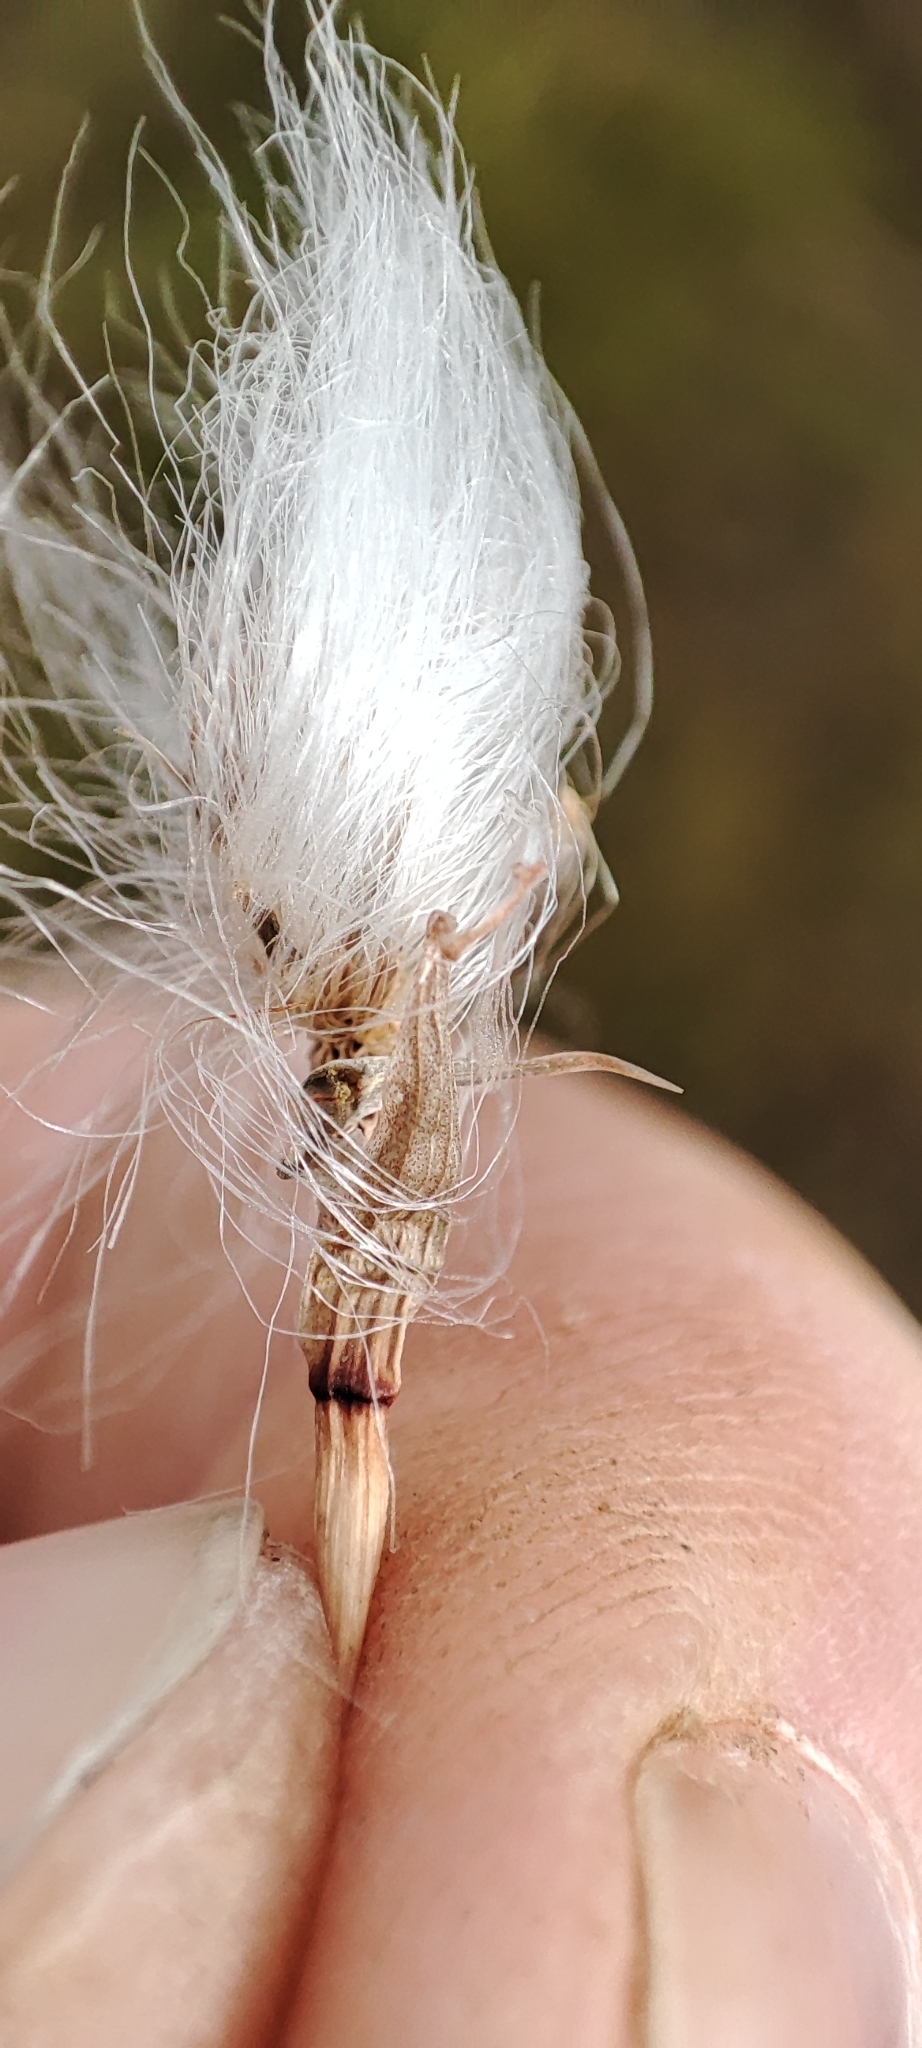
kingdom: Plantae
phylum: Tracheophyta
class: Liliopsida
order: Poales
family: Cyperaceae
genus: Eriophorum
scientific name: Eriophorum scheuchzeri
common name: Scheuchzer's cottongrass
